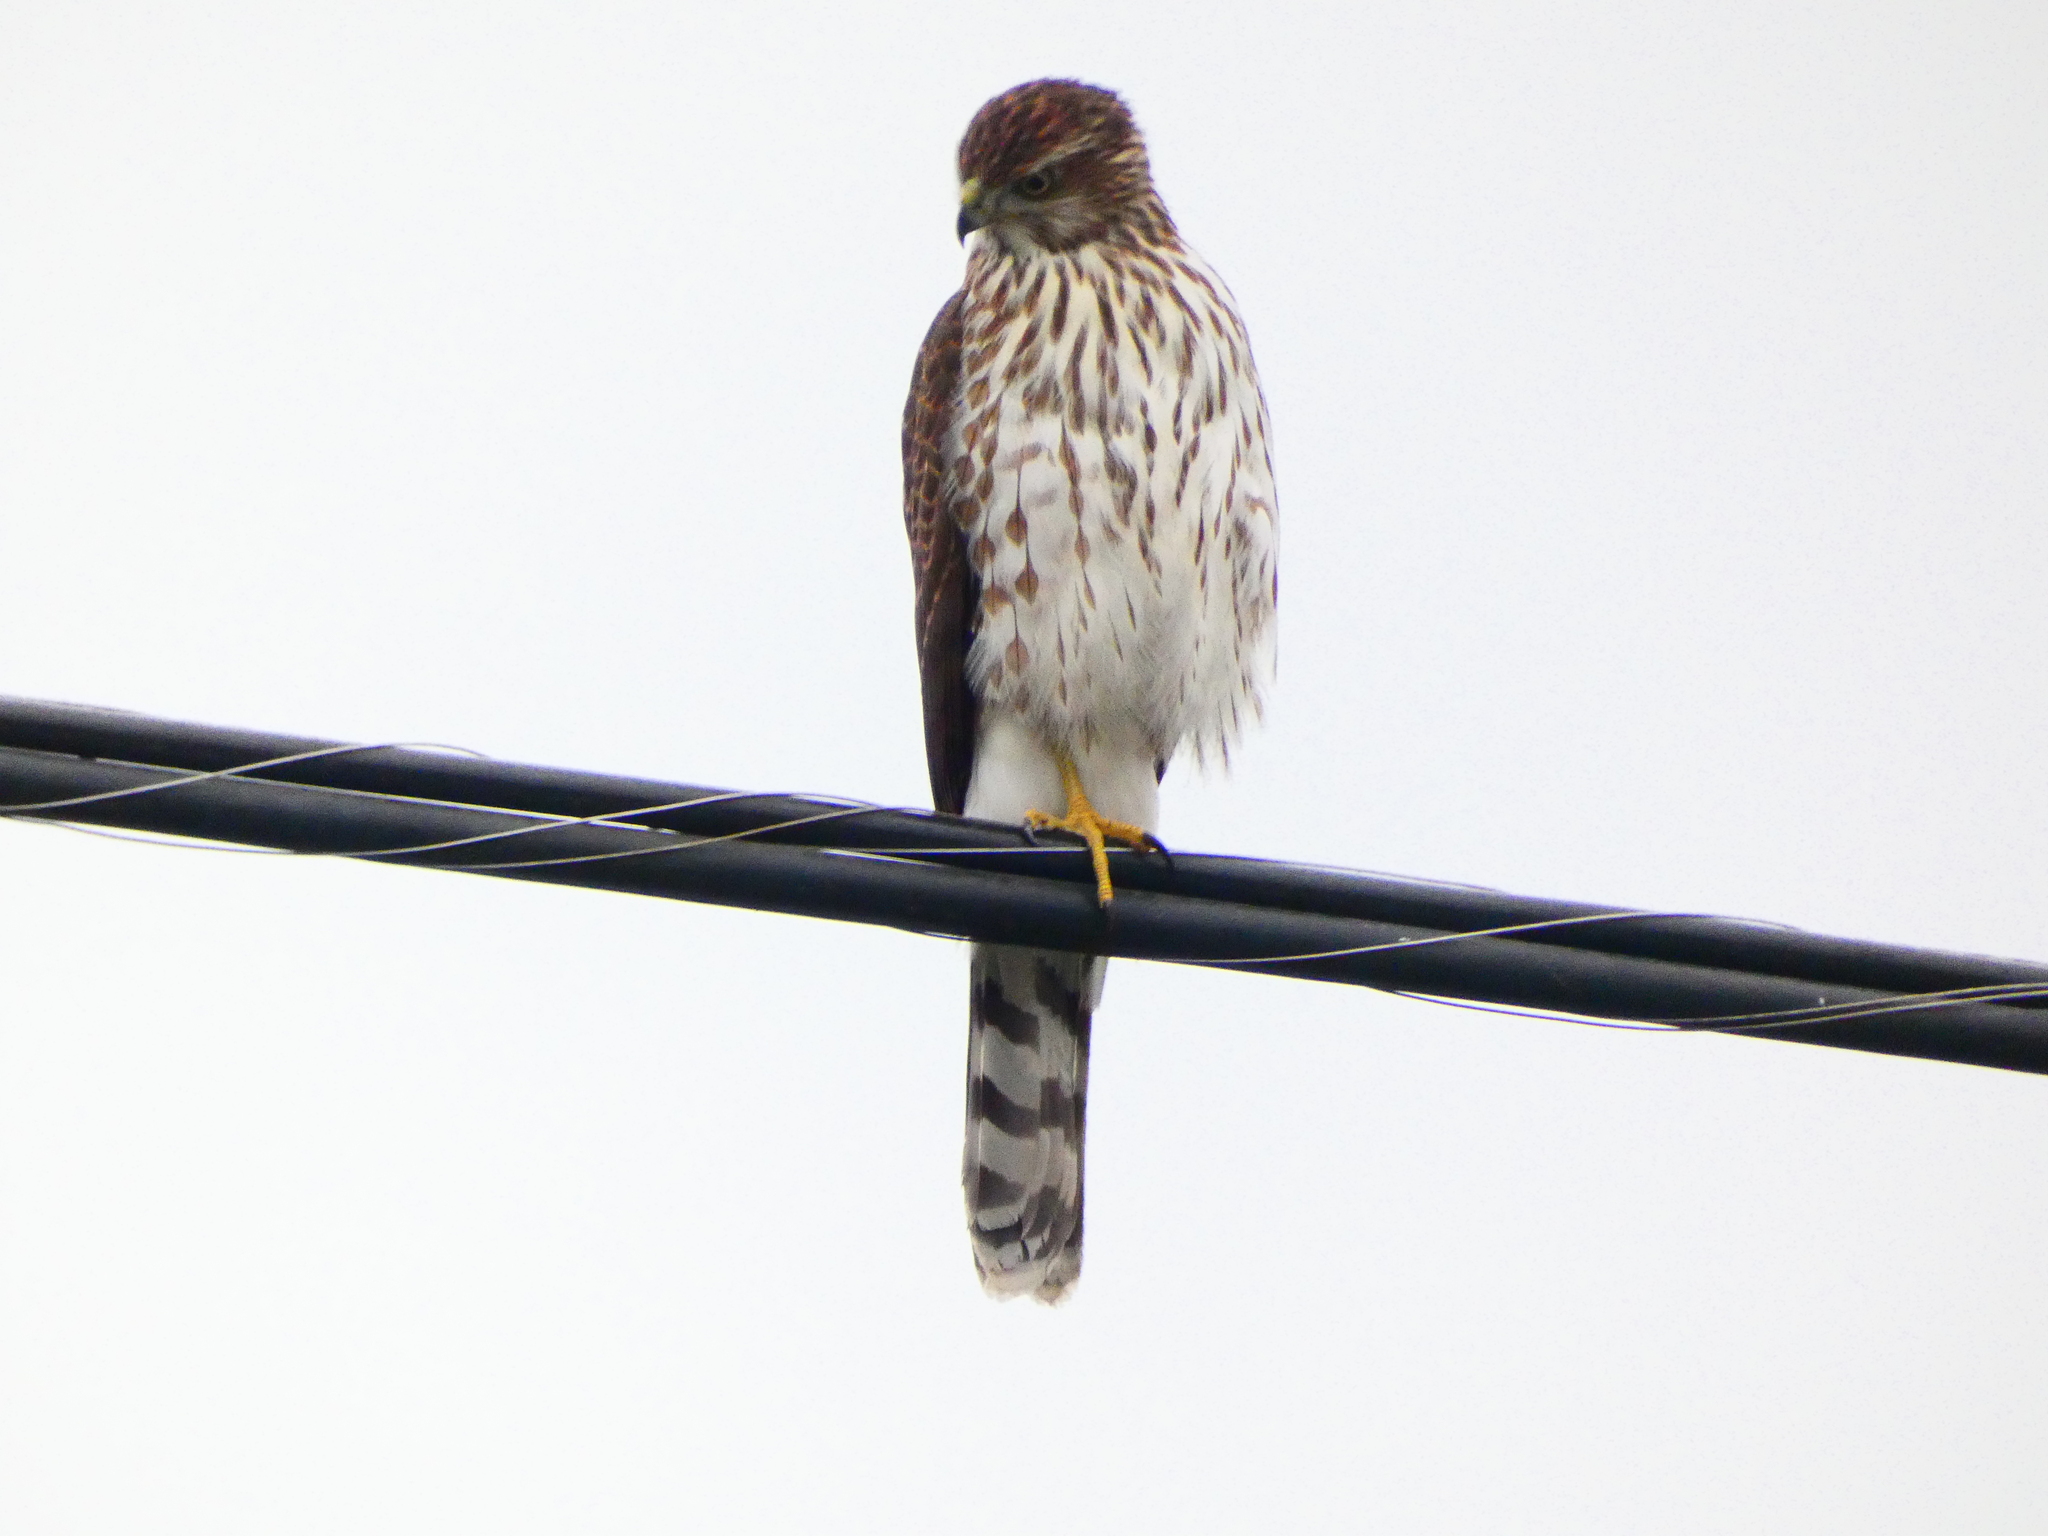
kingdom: Animalia
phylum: Chordata
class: Aves
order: Accipitriformes
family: Accipitridae
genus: Accipiter
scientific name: Accipiter cooperii
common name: Cooper's hawk
